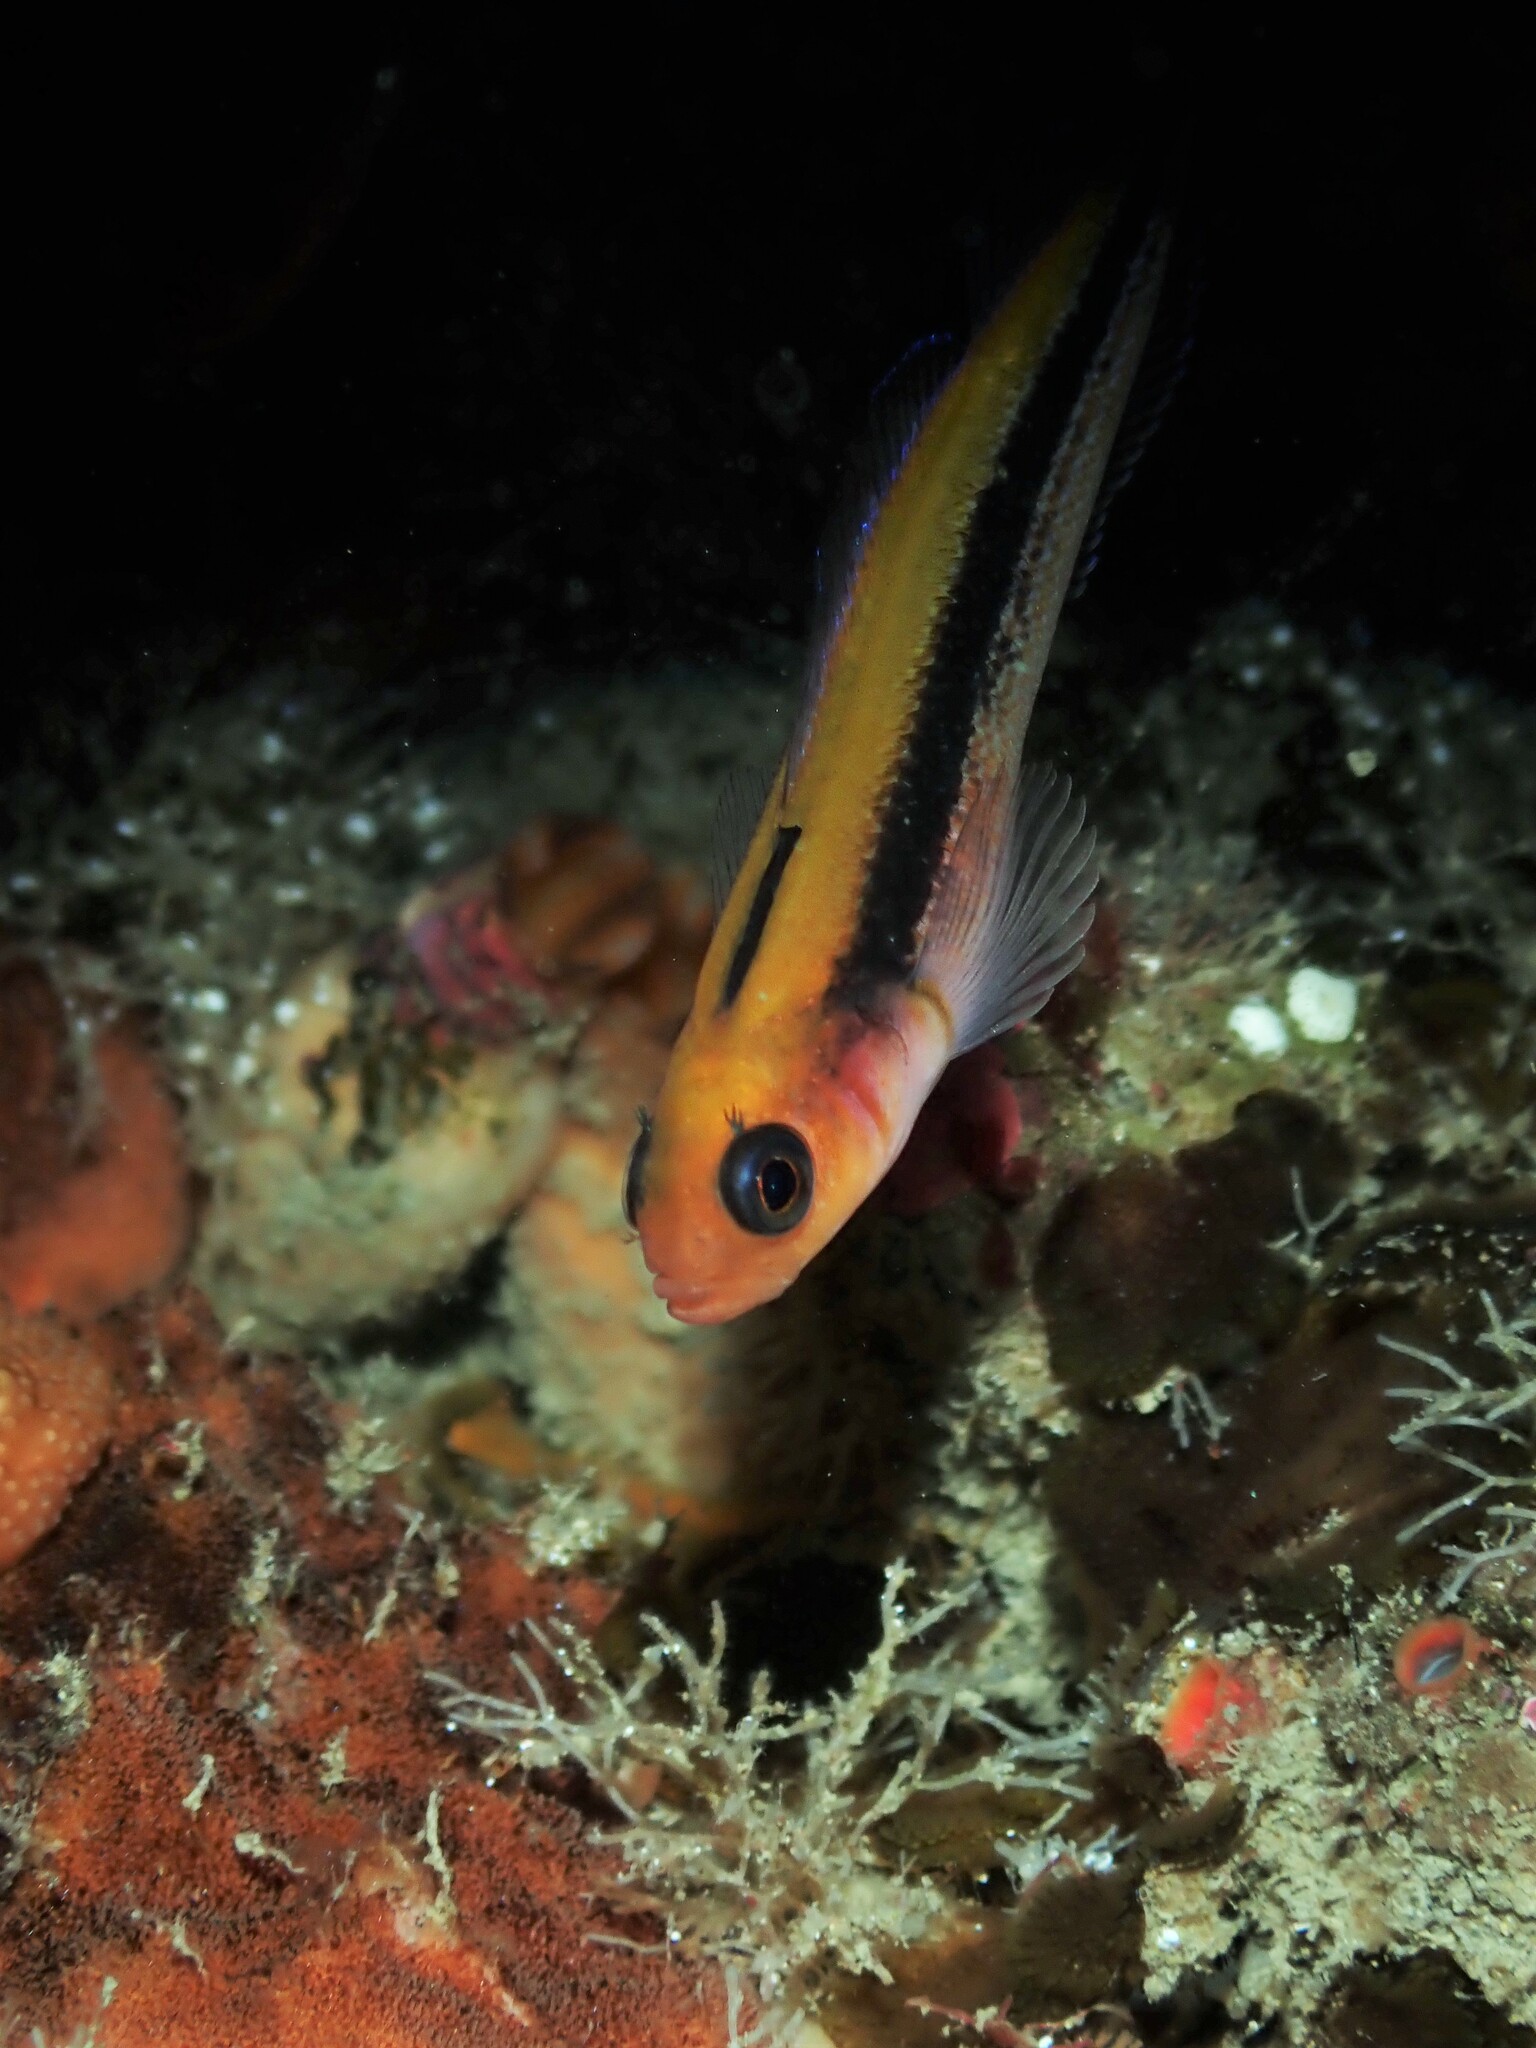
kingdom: Animalia
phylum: Chordata
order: Perciformes
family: Tripterygiidae
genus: Forsterygion
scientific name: Forsterygion maryannae
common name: Oblique-swimming triplefin
